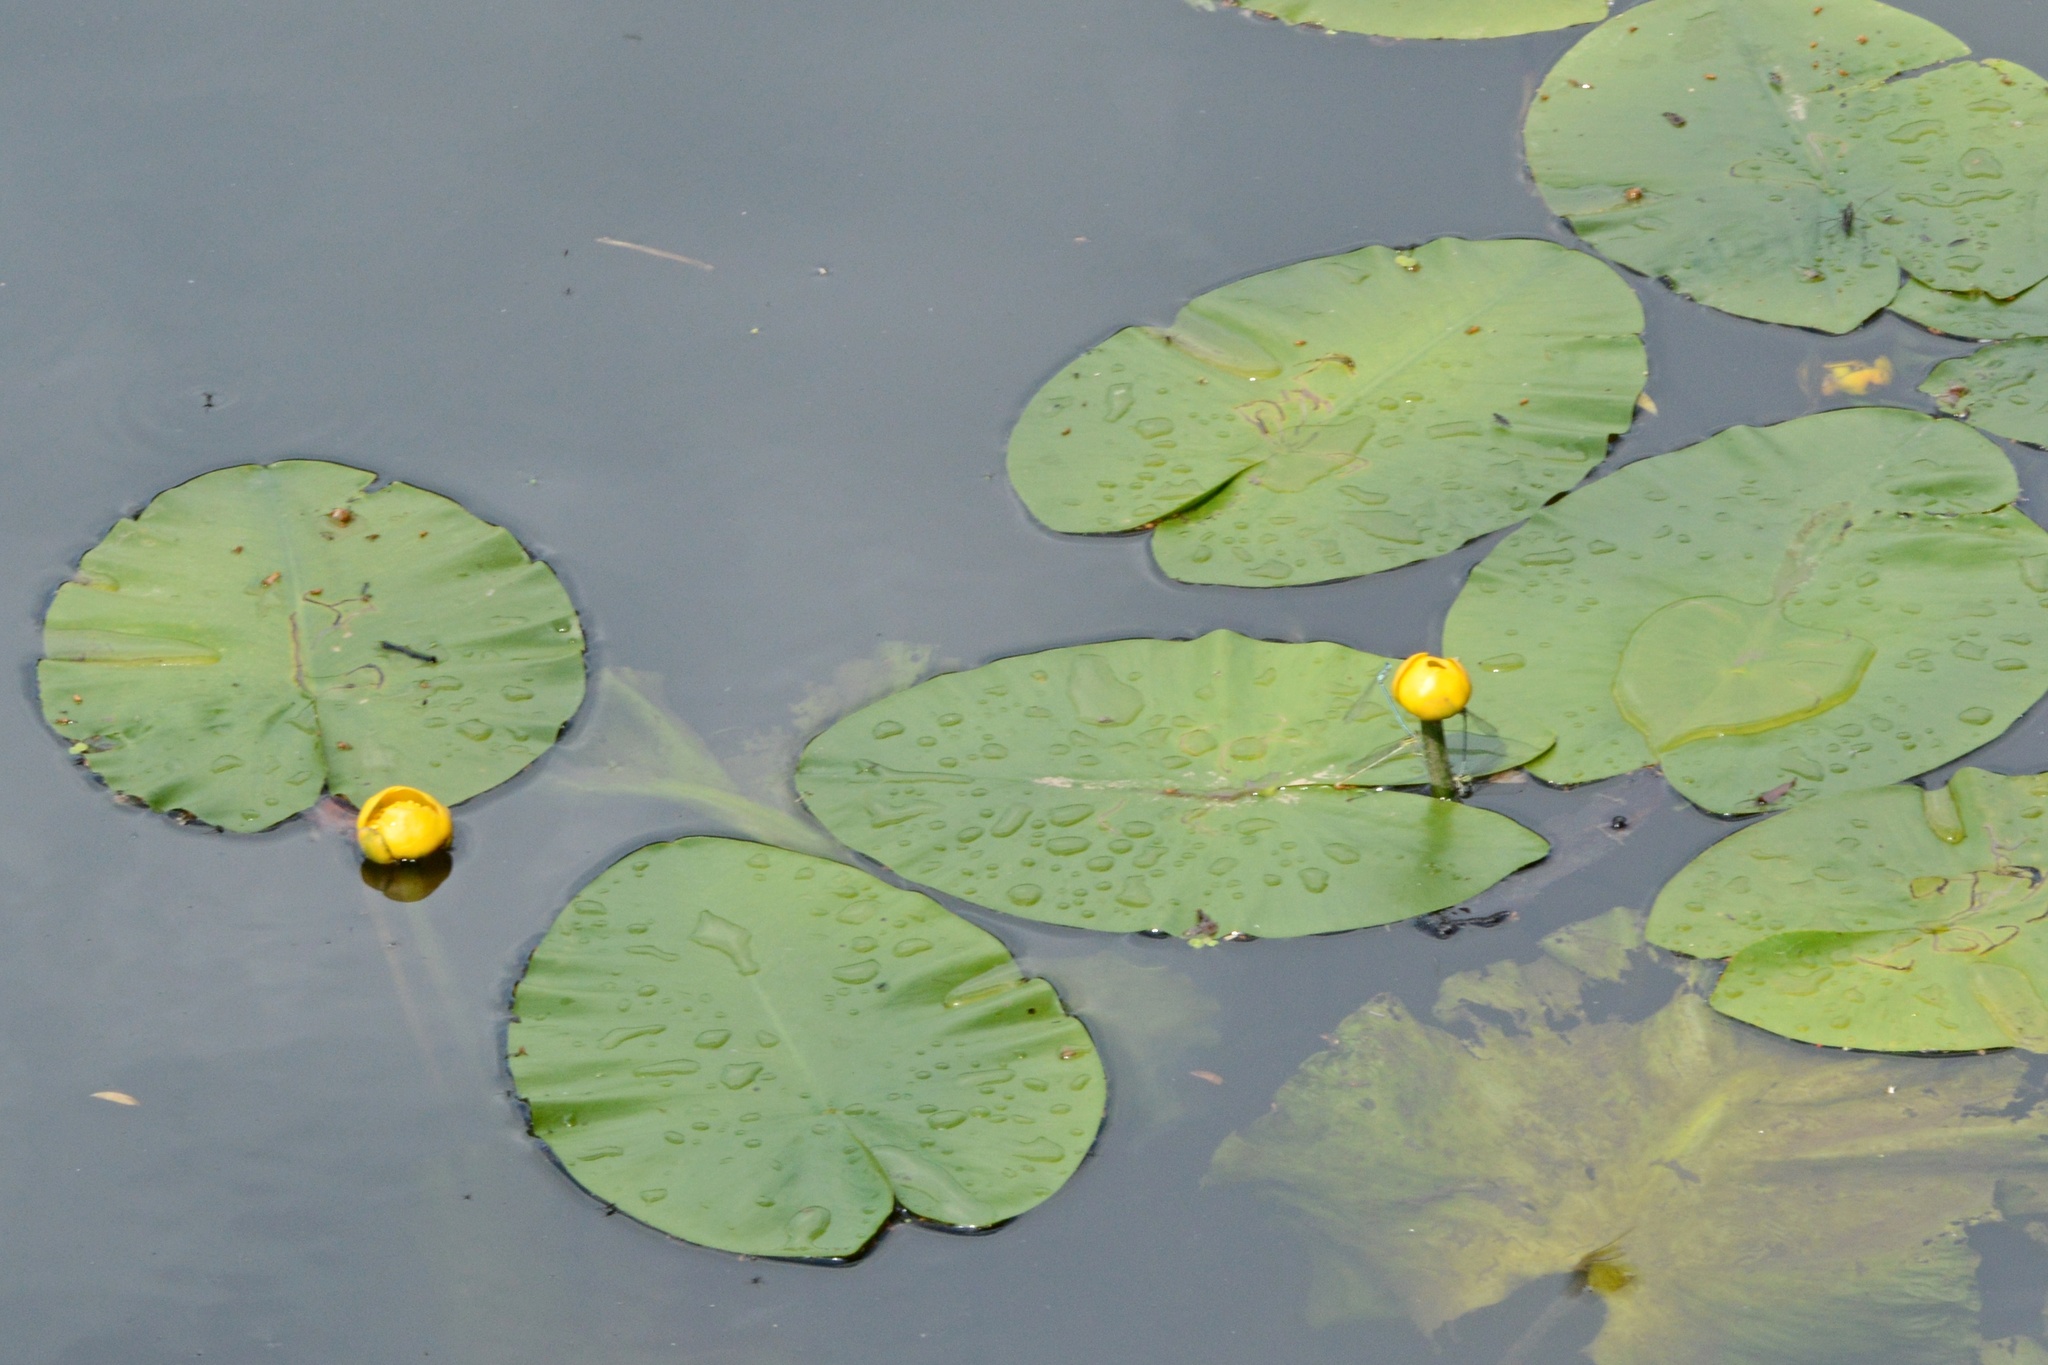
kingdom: Plantae
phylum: Tracheophyta
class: Magnoliopsida
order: Nymphaeales
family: Nymphaeaceae
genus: Nuphar
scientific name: Nuphar lutea
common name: Yellow water-lily
